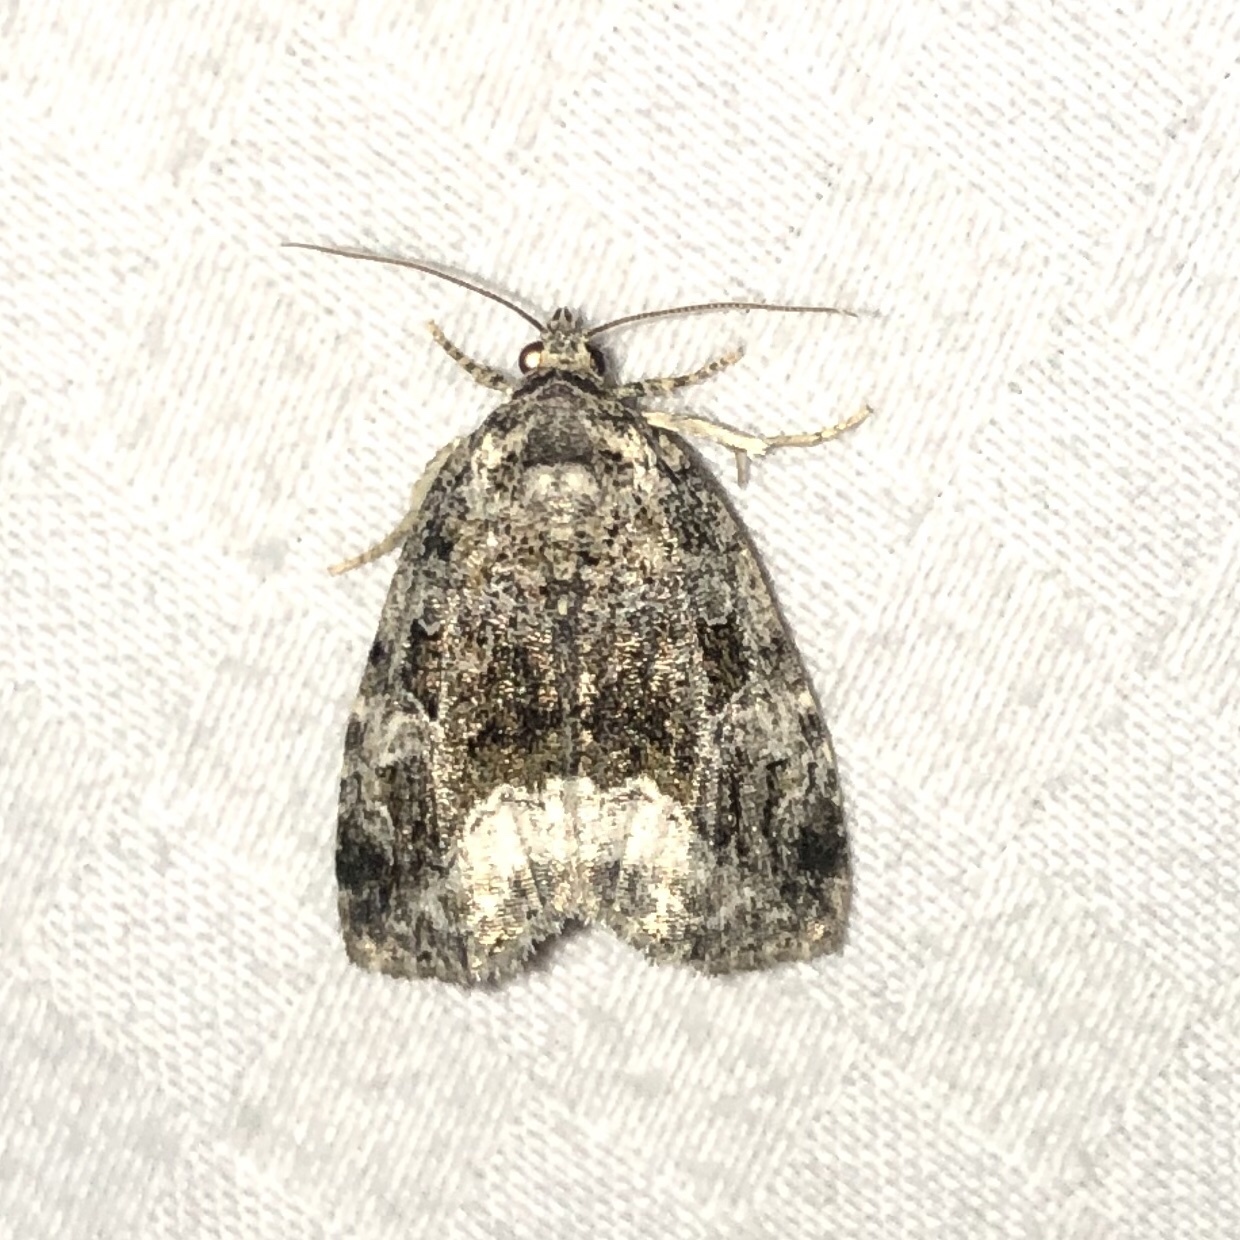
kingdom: Animalia
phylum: Arthropoda
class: Insecta
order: Lepidoptera
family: Noctuidae
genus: Protodeltote
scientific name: Protodeltote muscosula
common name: Large mossy glyph
